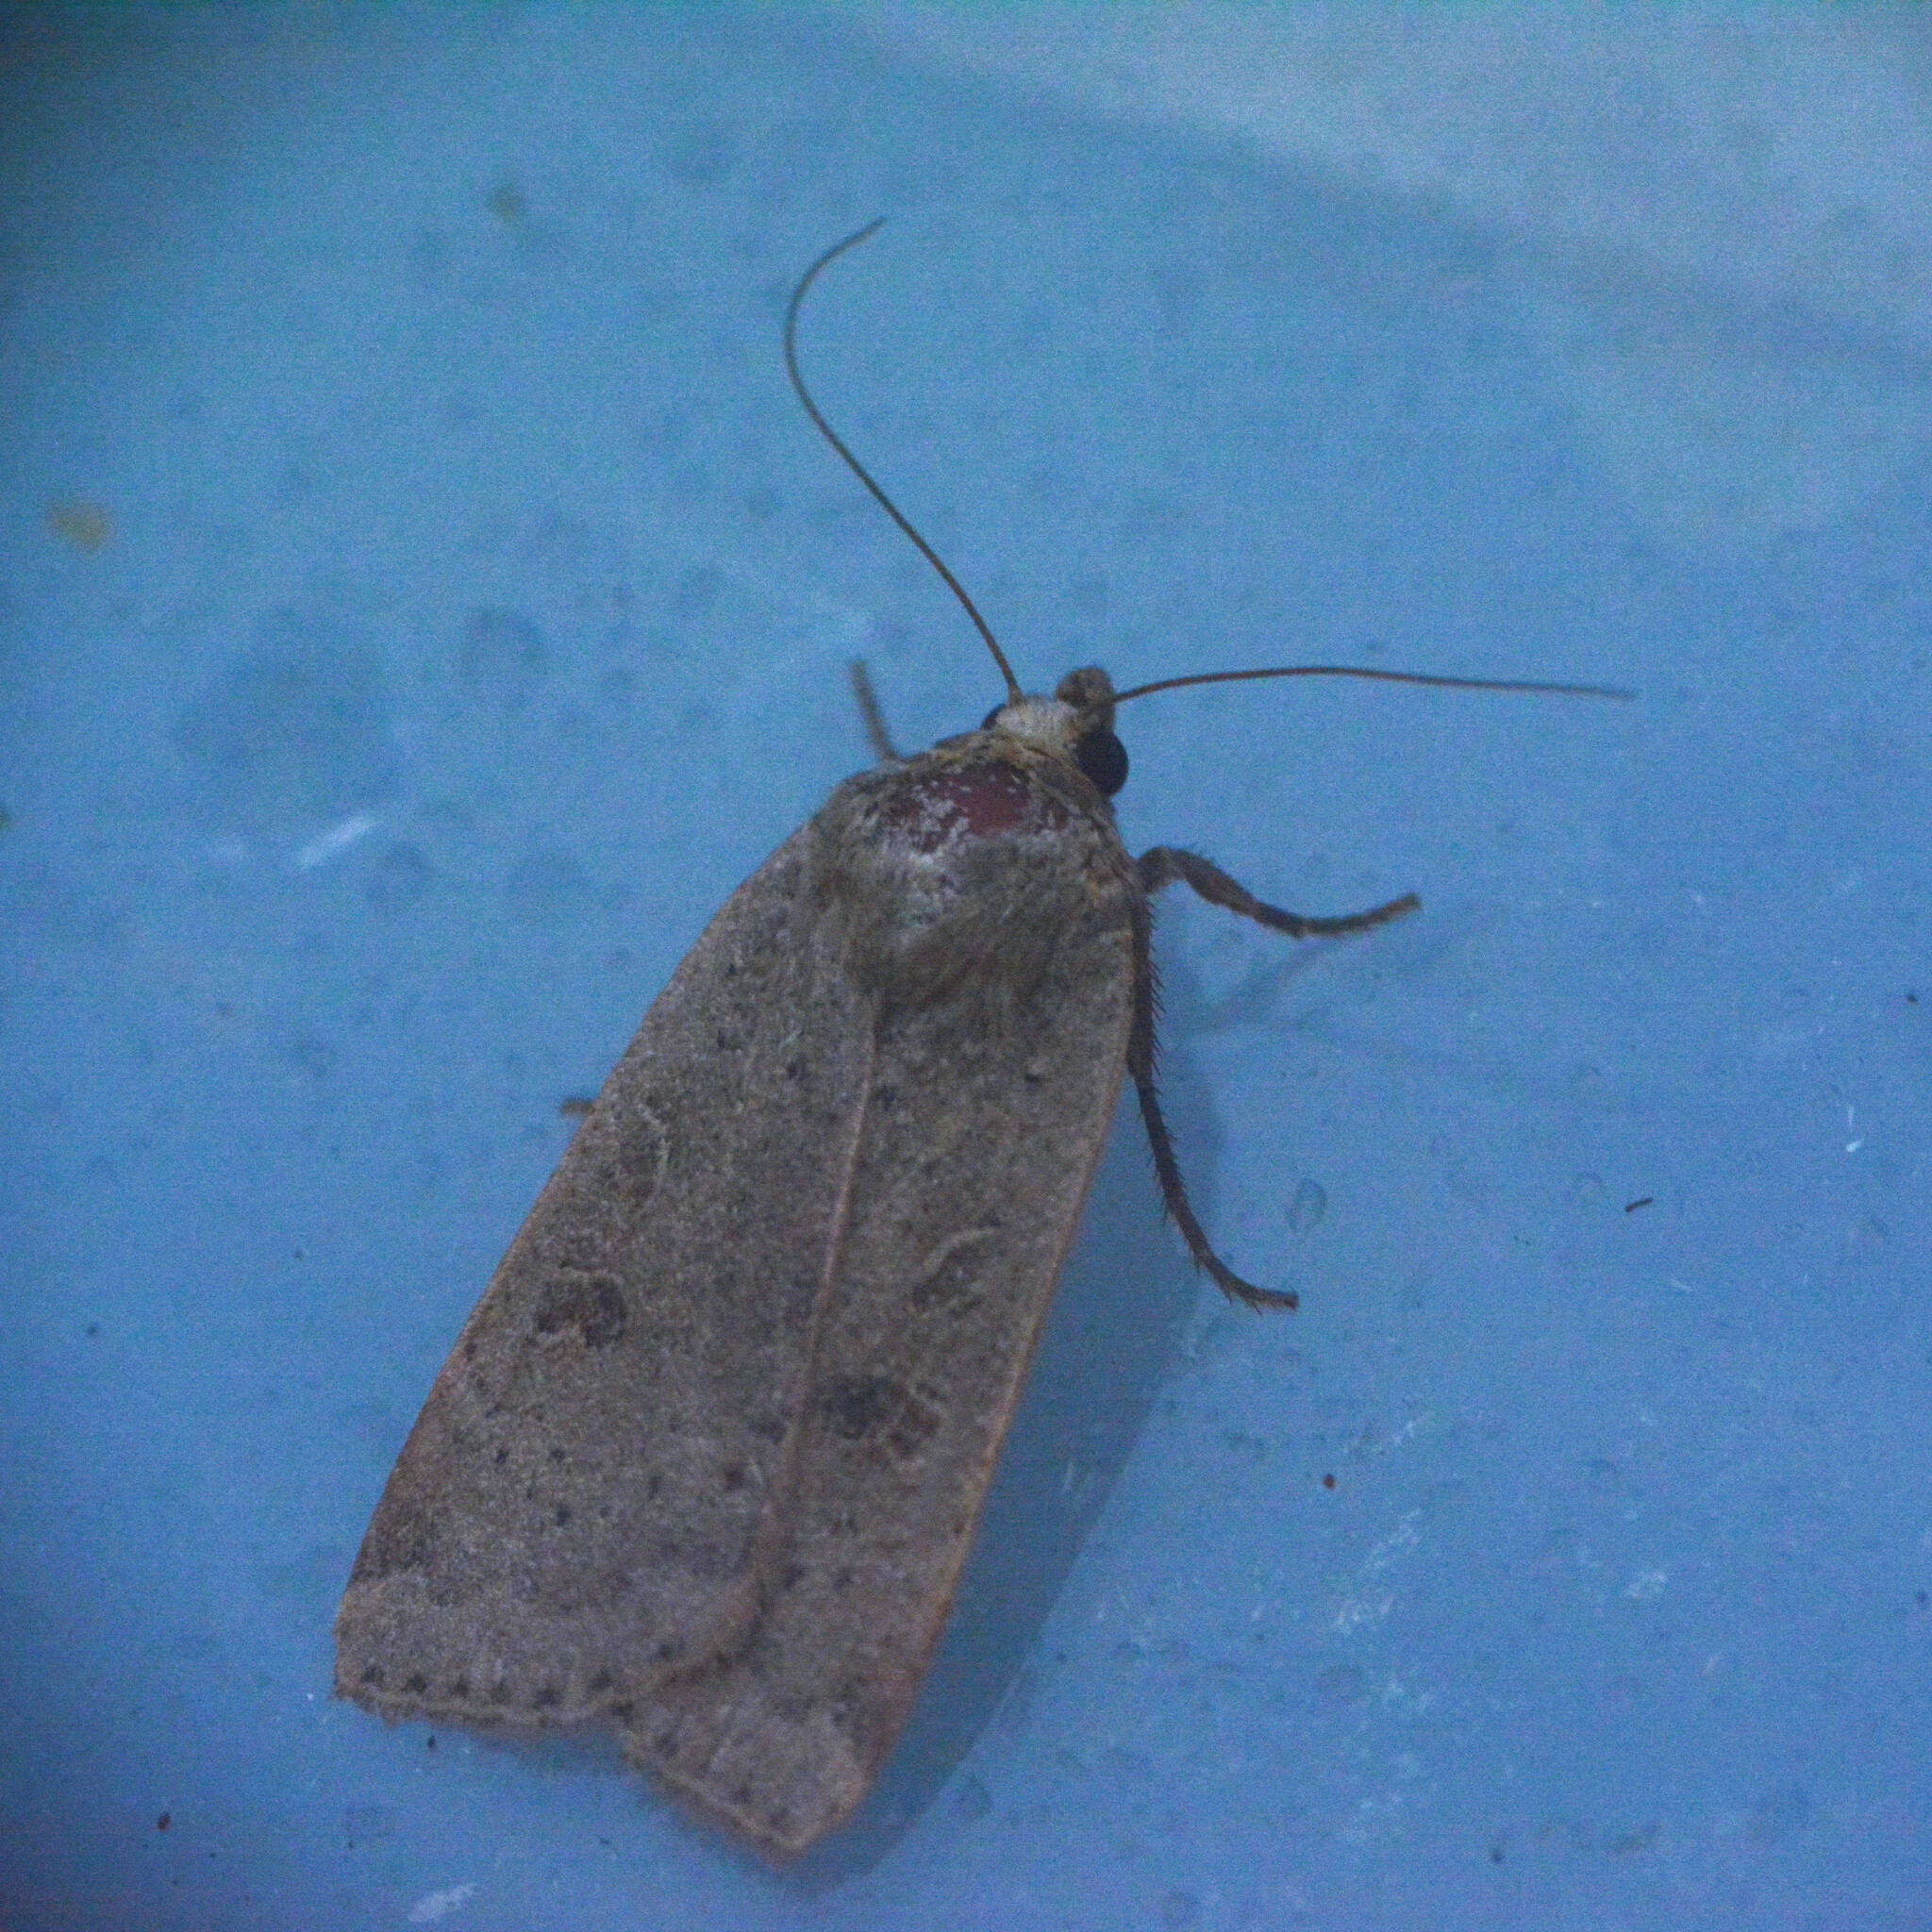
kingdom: Animalia
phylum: Arthropoda
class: Insecta
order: Lepidoptera
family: Noctuidae
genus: Noctua
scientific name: Noctua comes
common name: Lesser yellow underwing
